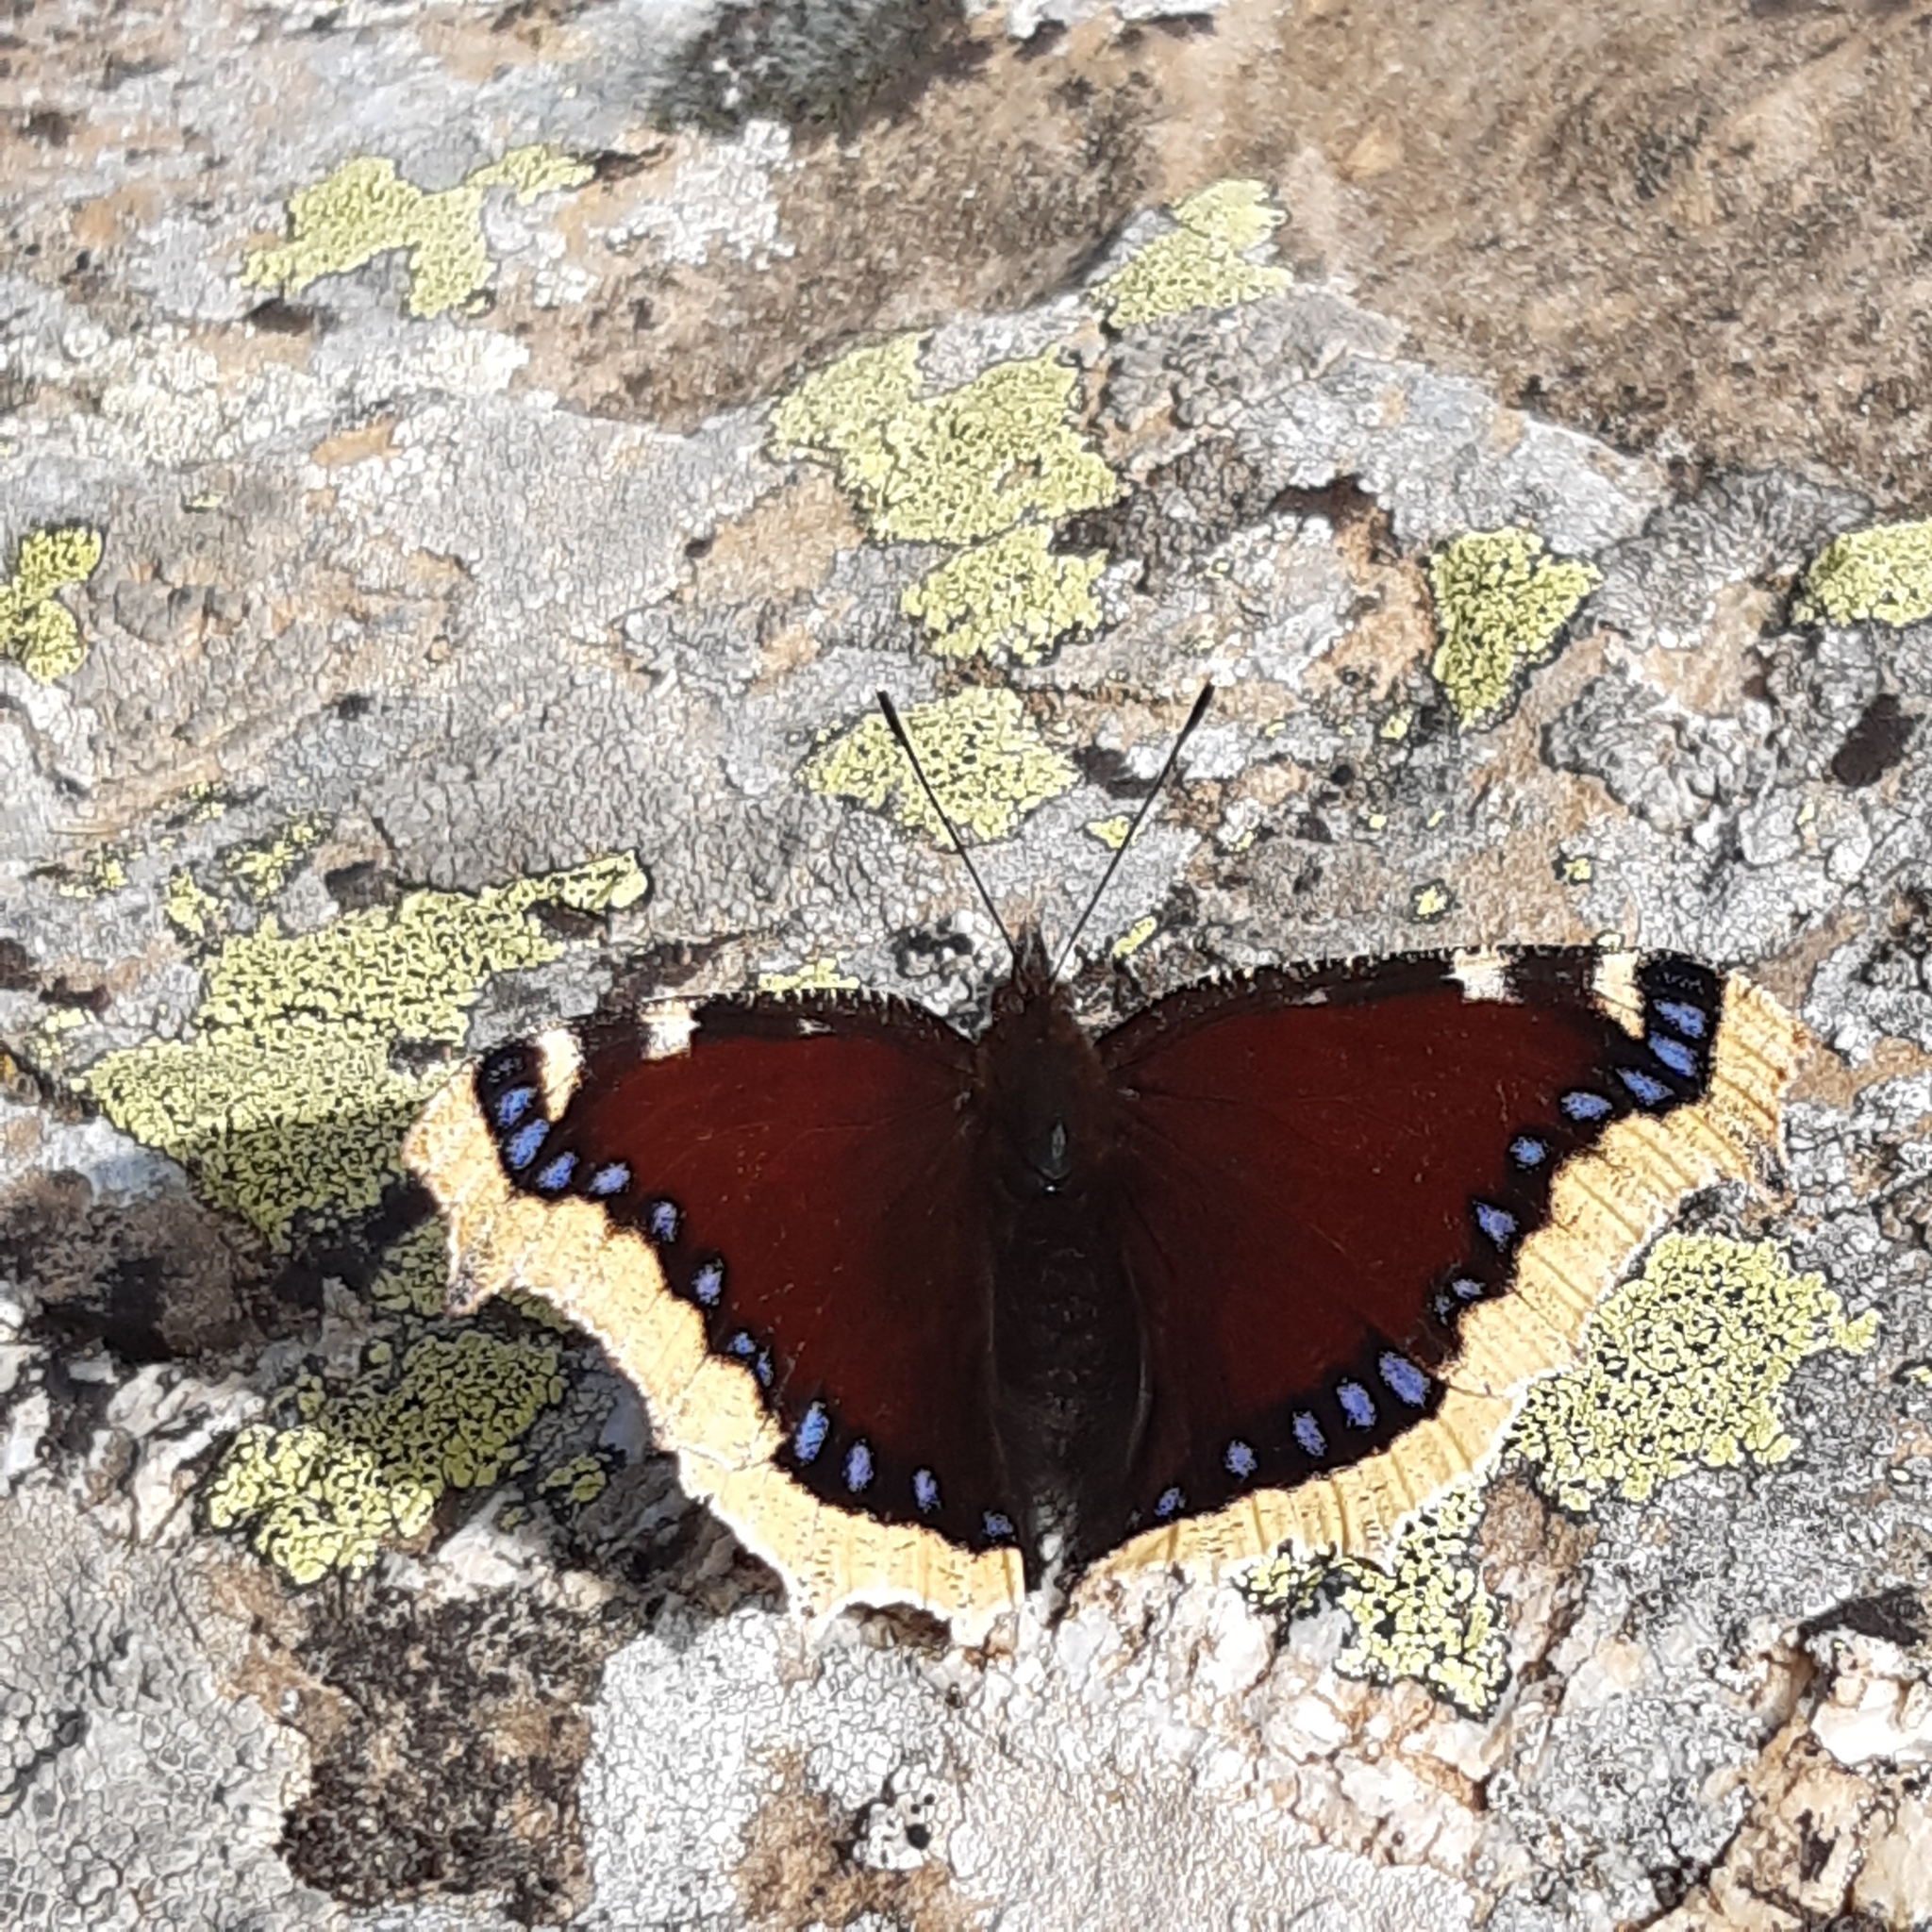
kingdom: Animalia
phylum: Arthropoda
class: Insecta
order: Lepidoptera
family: Nymphalidae
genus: Nymphalis
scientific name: Nymphalis antiopa
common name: Camberwell beauty
